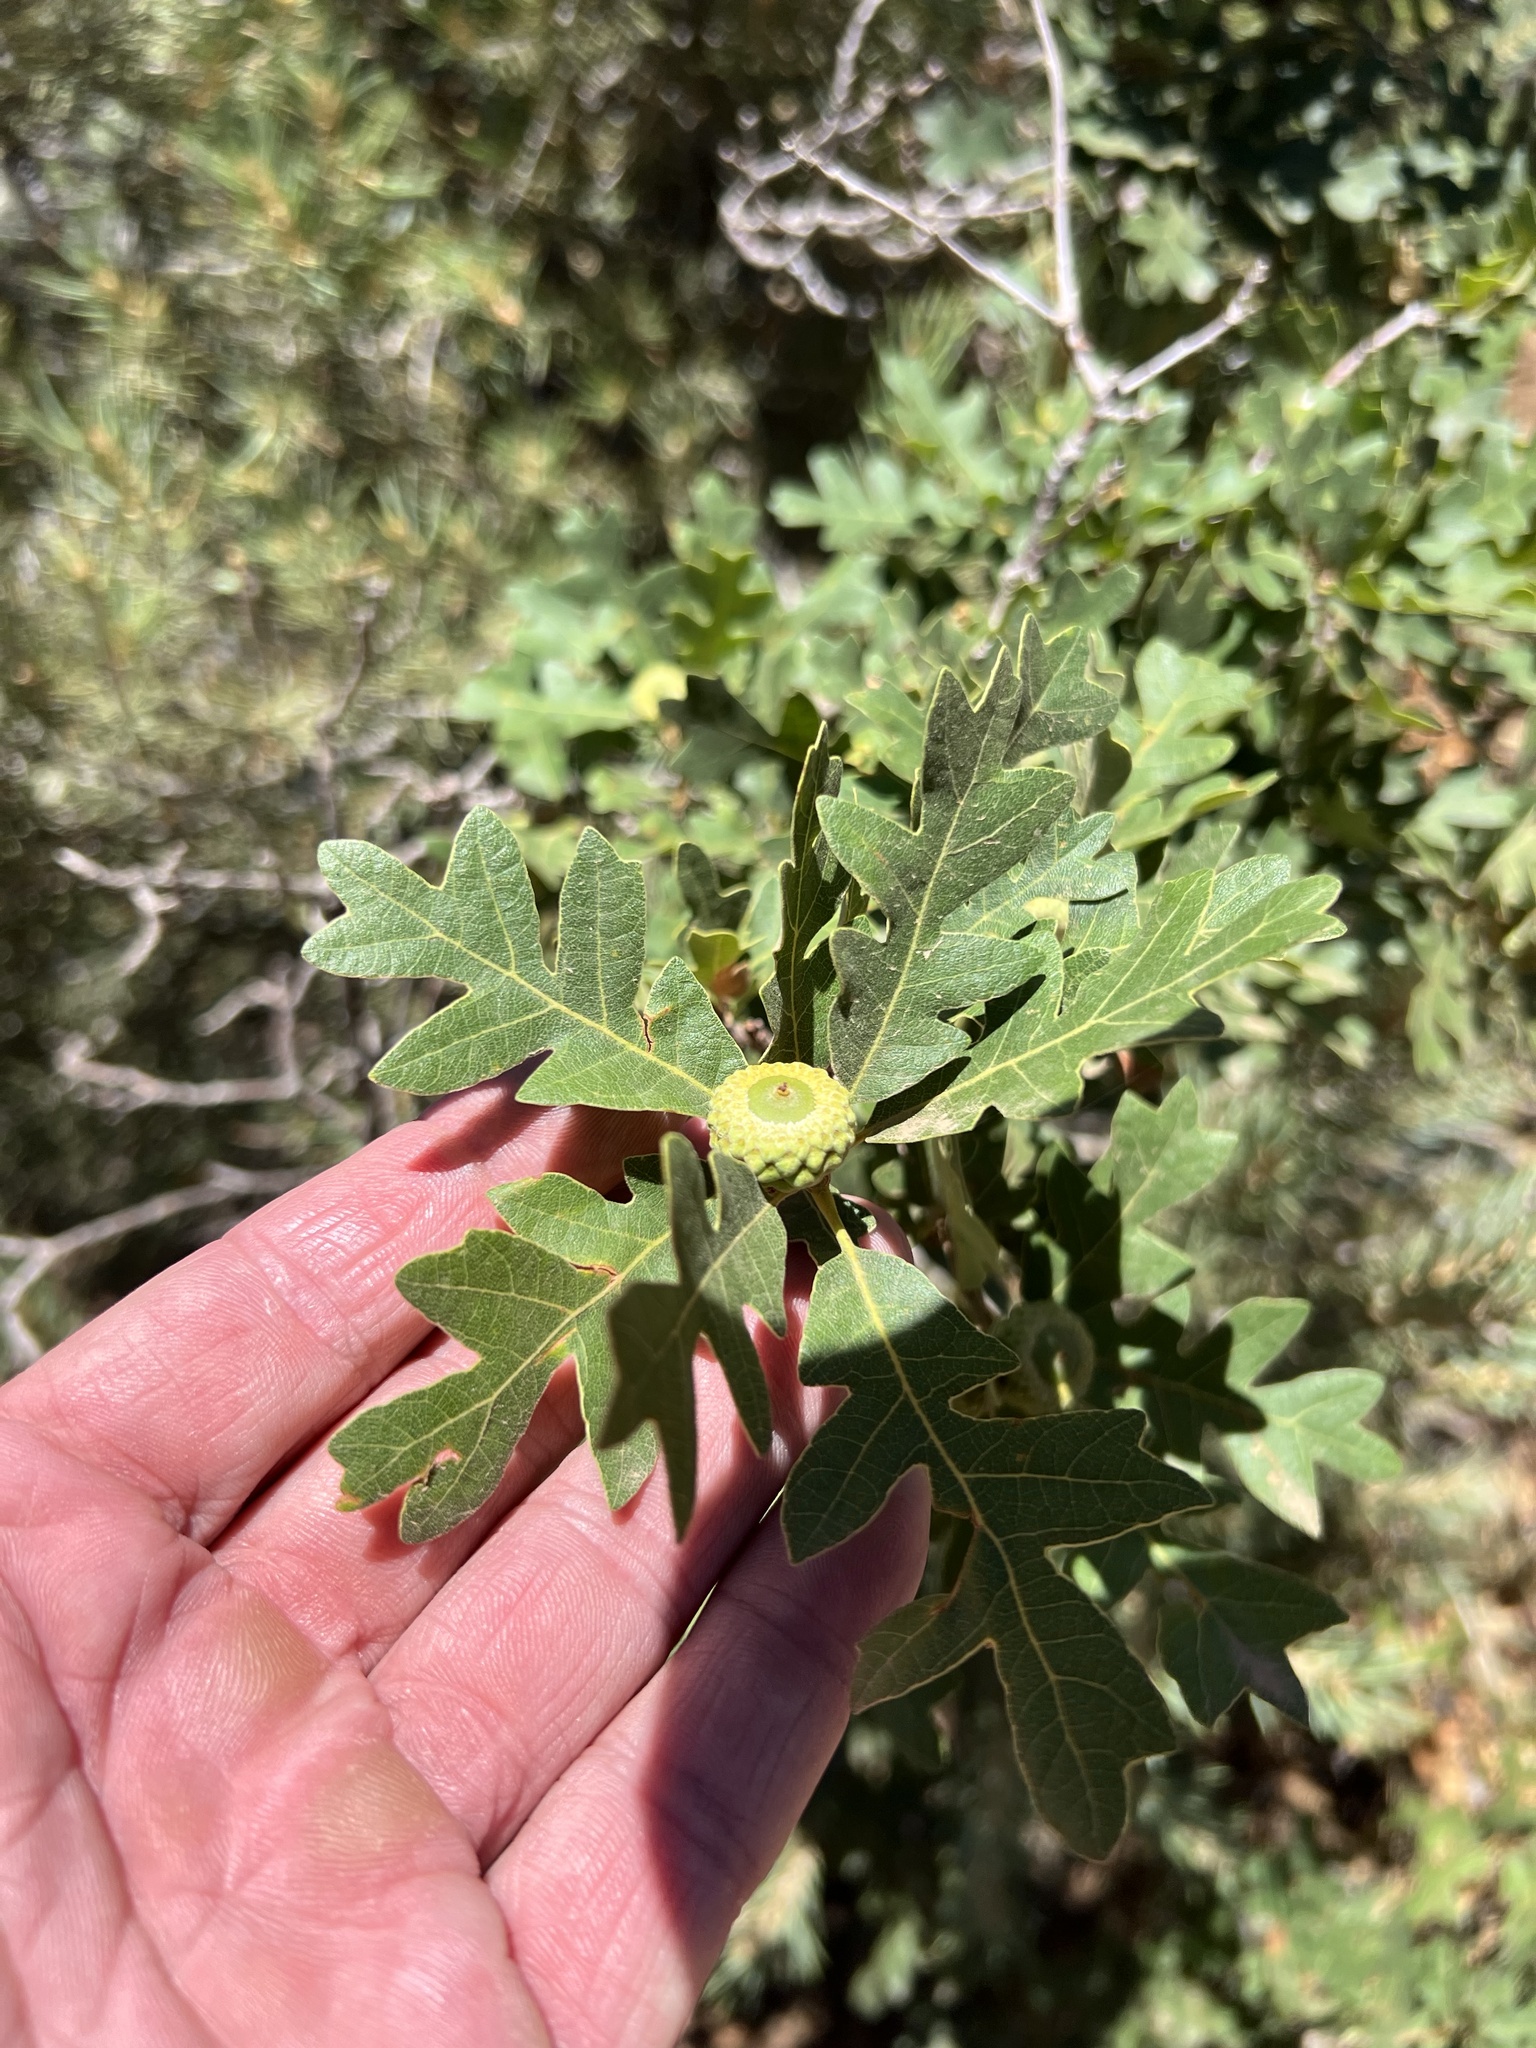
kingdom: Plantae
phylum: Tracheophyta
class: Magnoliopsida
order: Fagales
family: Fagaceae
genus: Quercus
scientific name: Quercus gambelii
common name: Gambel oak
